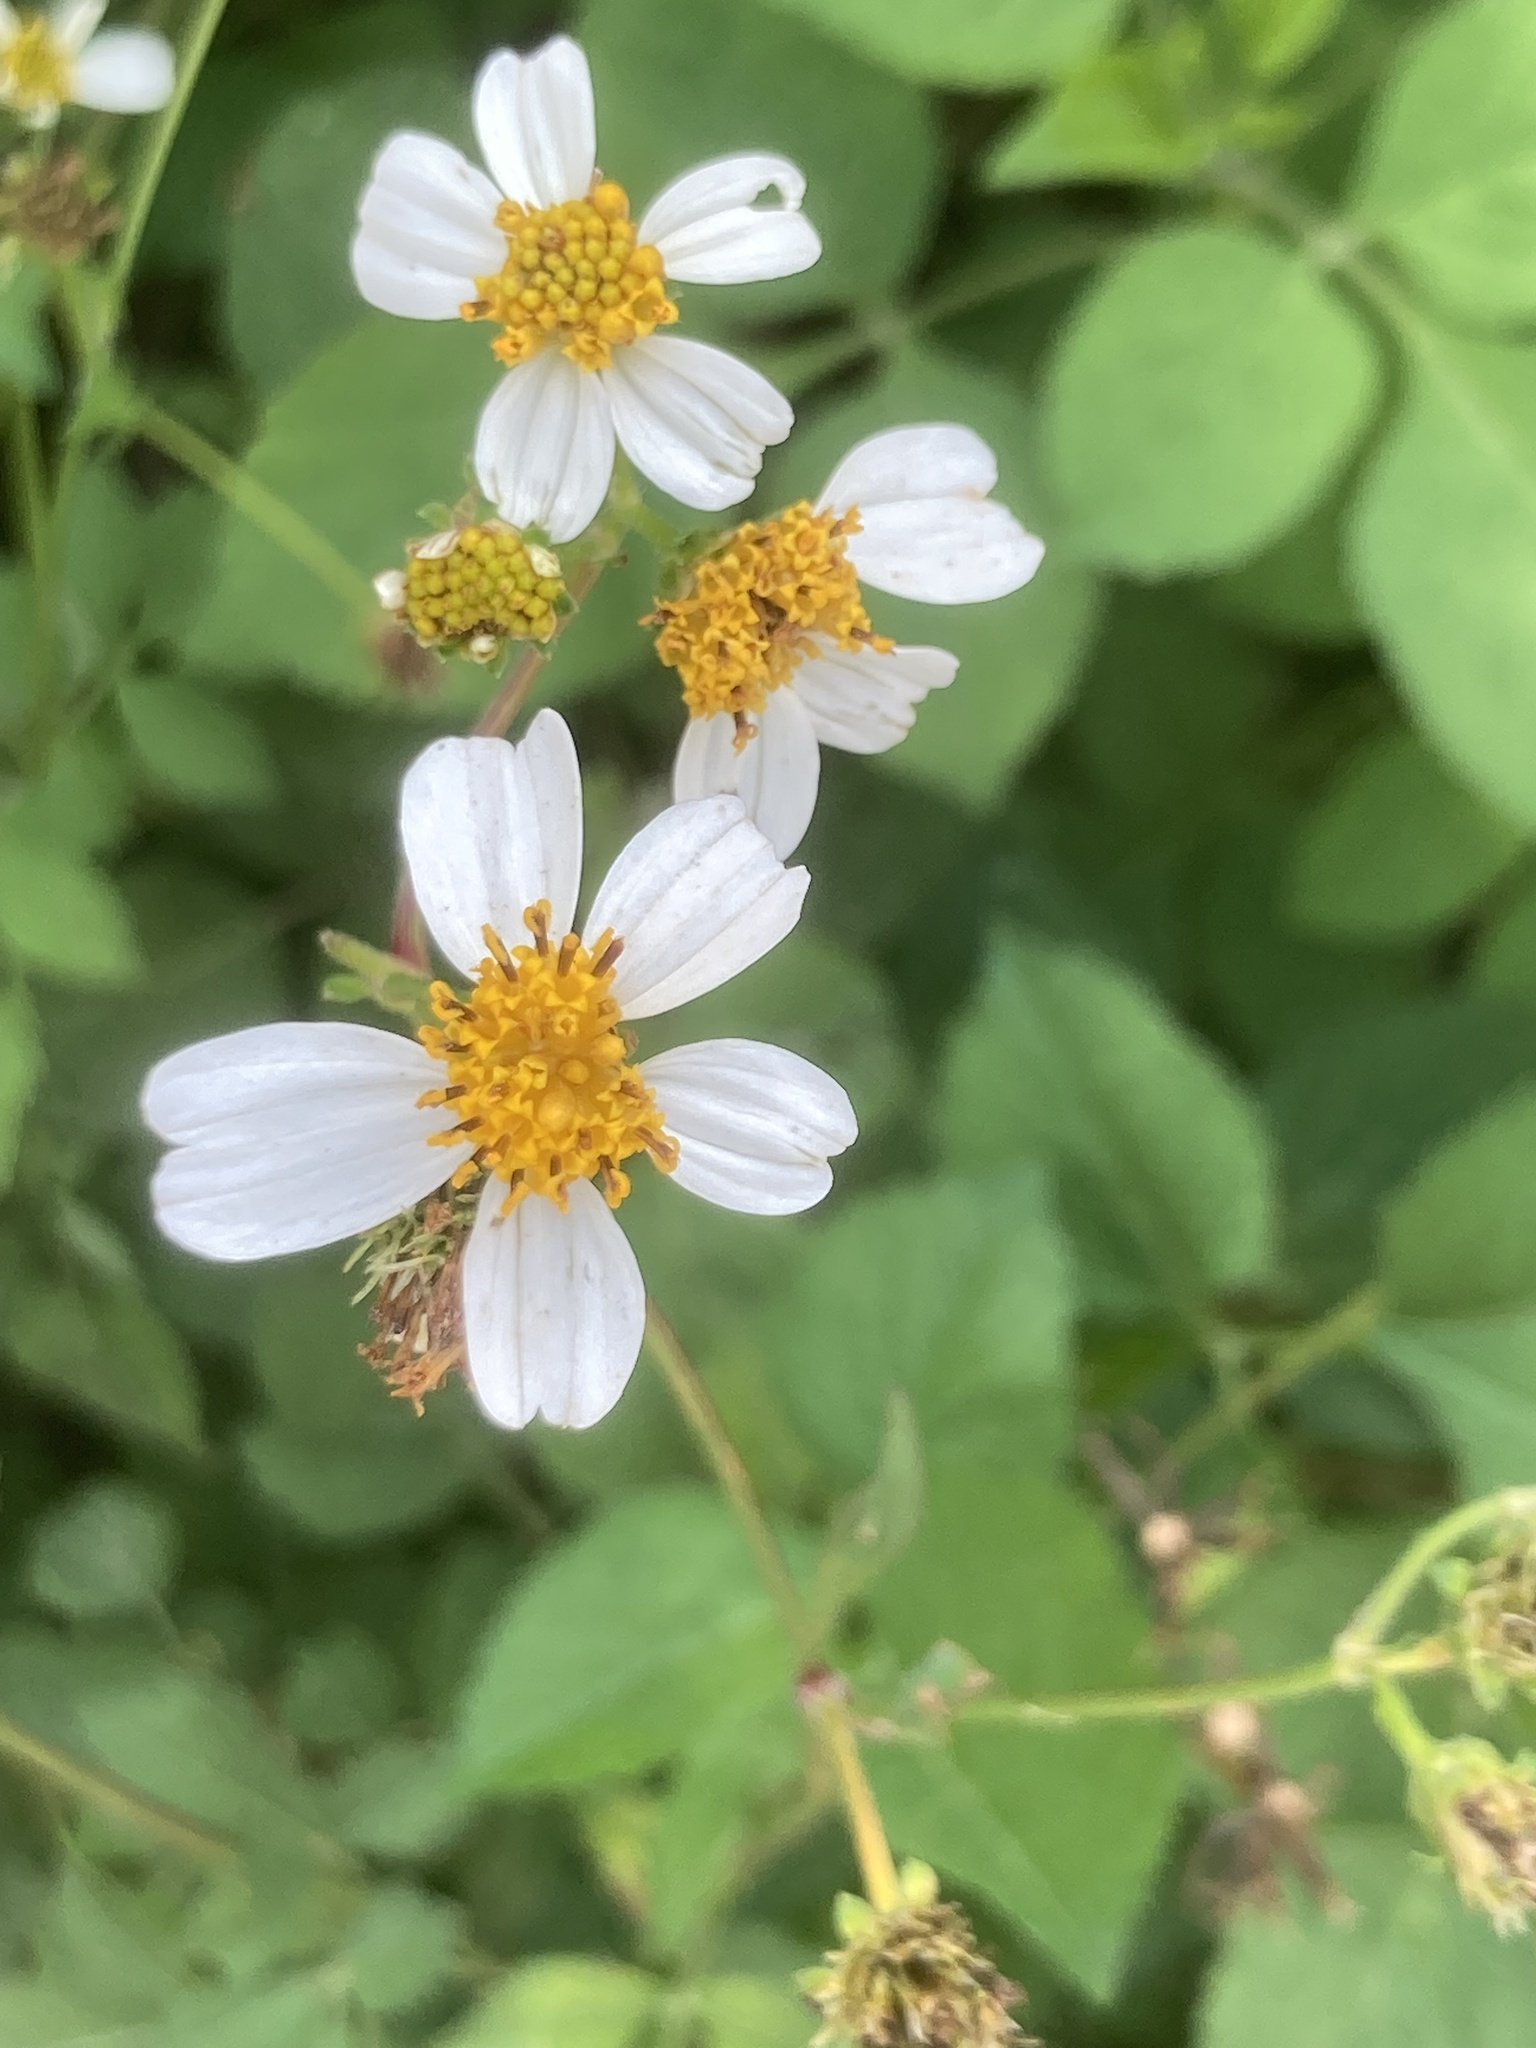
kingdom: Plantae
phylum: Tracheophyta
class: Magnoliopsida
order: Asterales
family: Asteraceae
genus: Bidens
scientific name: Bidens alba
